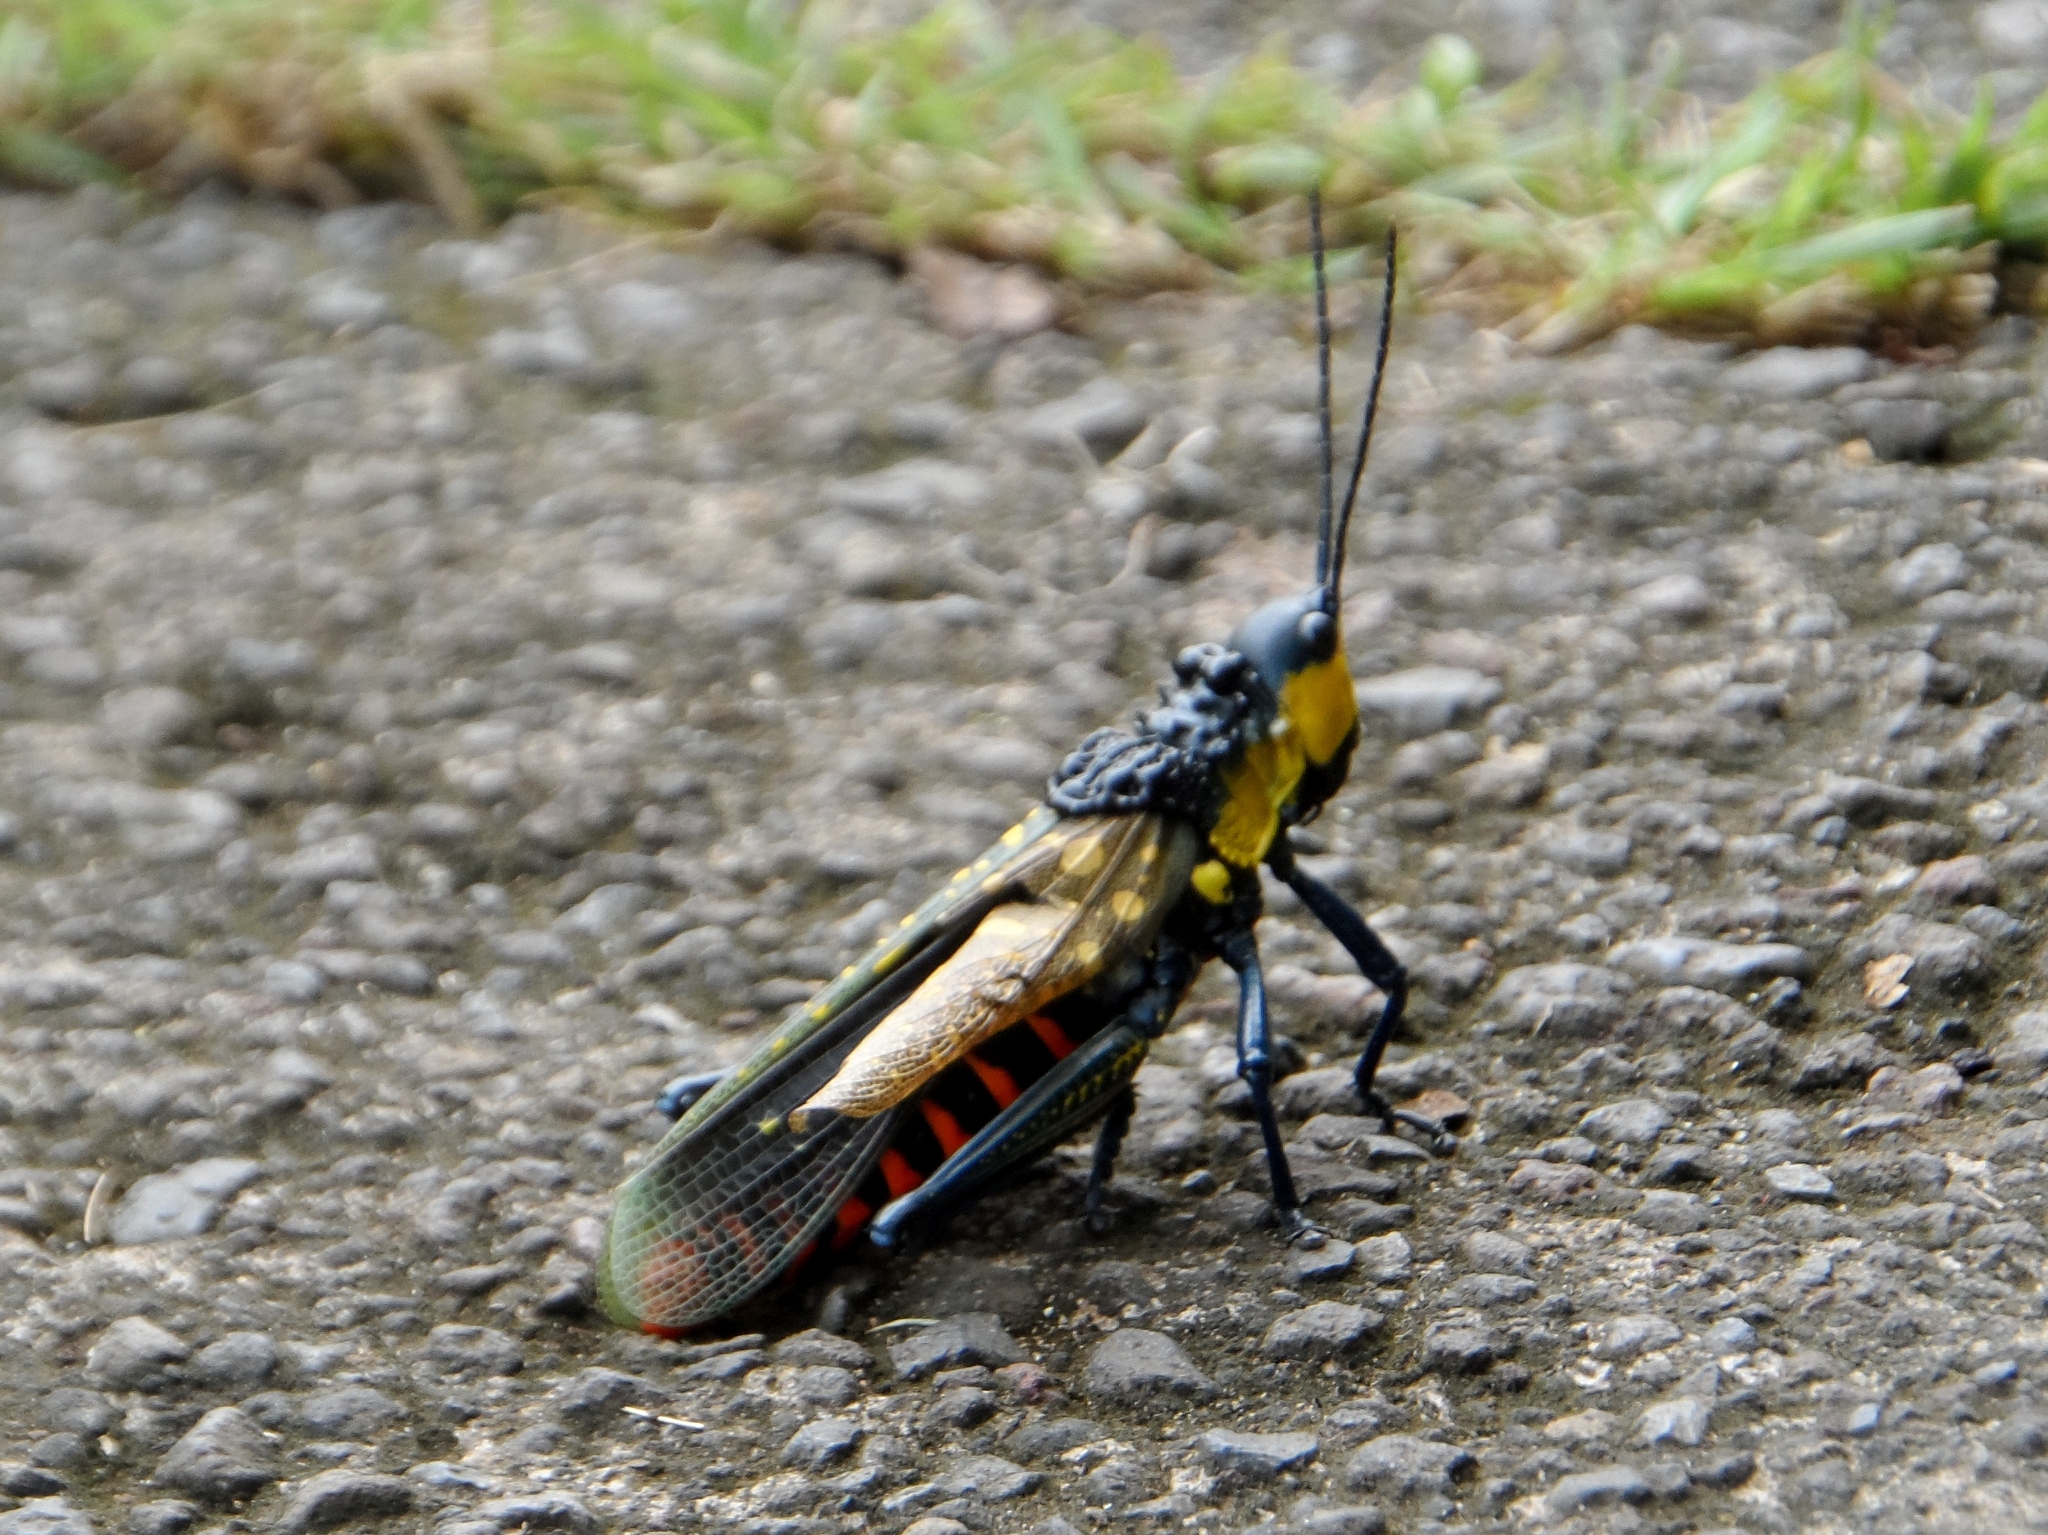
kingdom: Animalia
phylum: Arthropoda
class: Insecta
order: Orthoptera
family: Pyrgomorphidae
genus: Aularches
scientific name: Aularches miliaris
